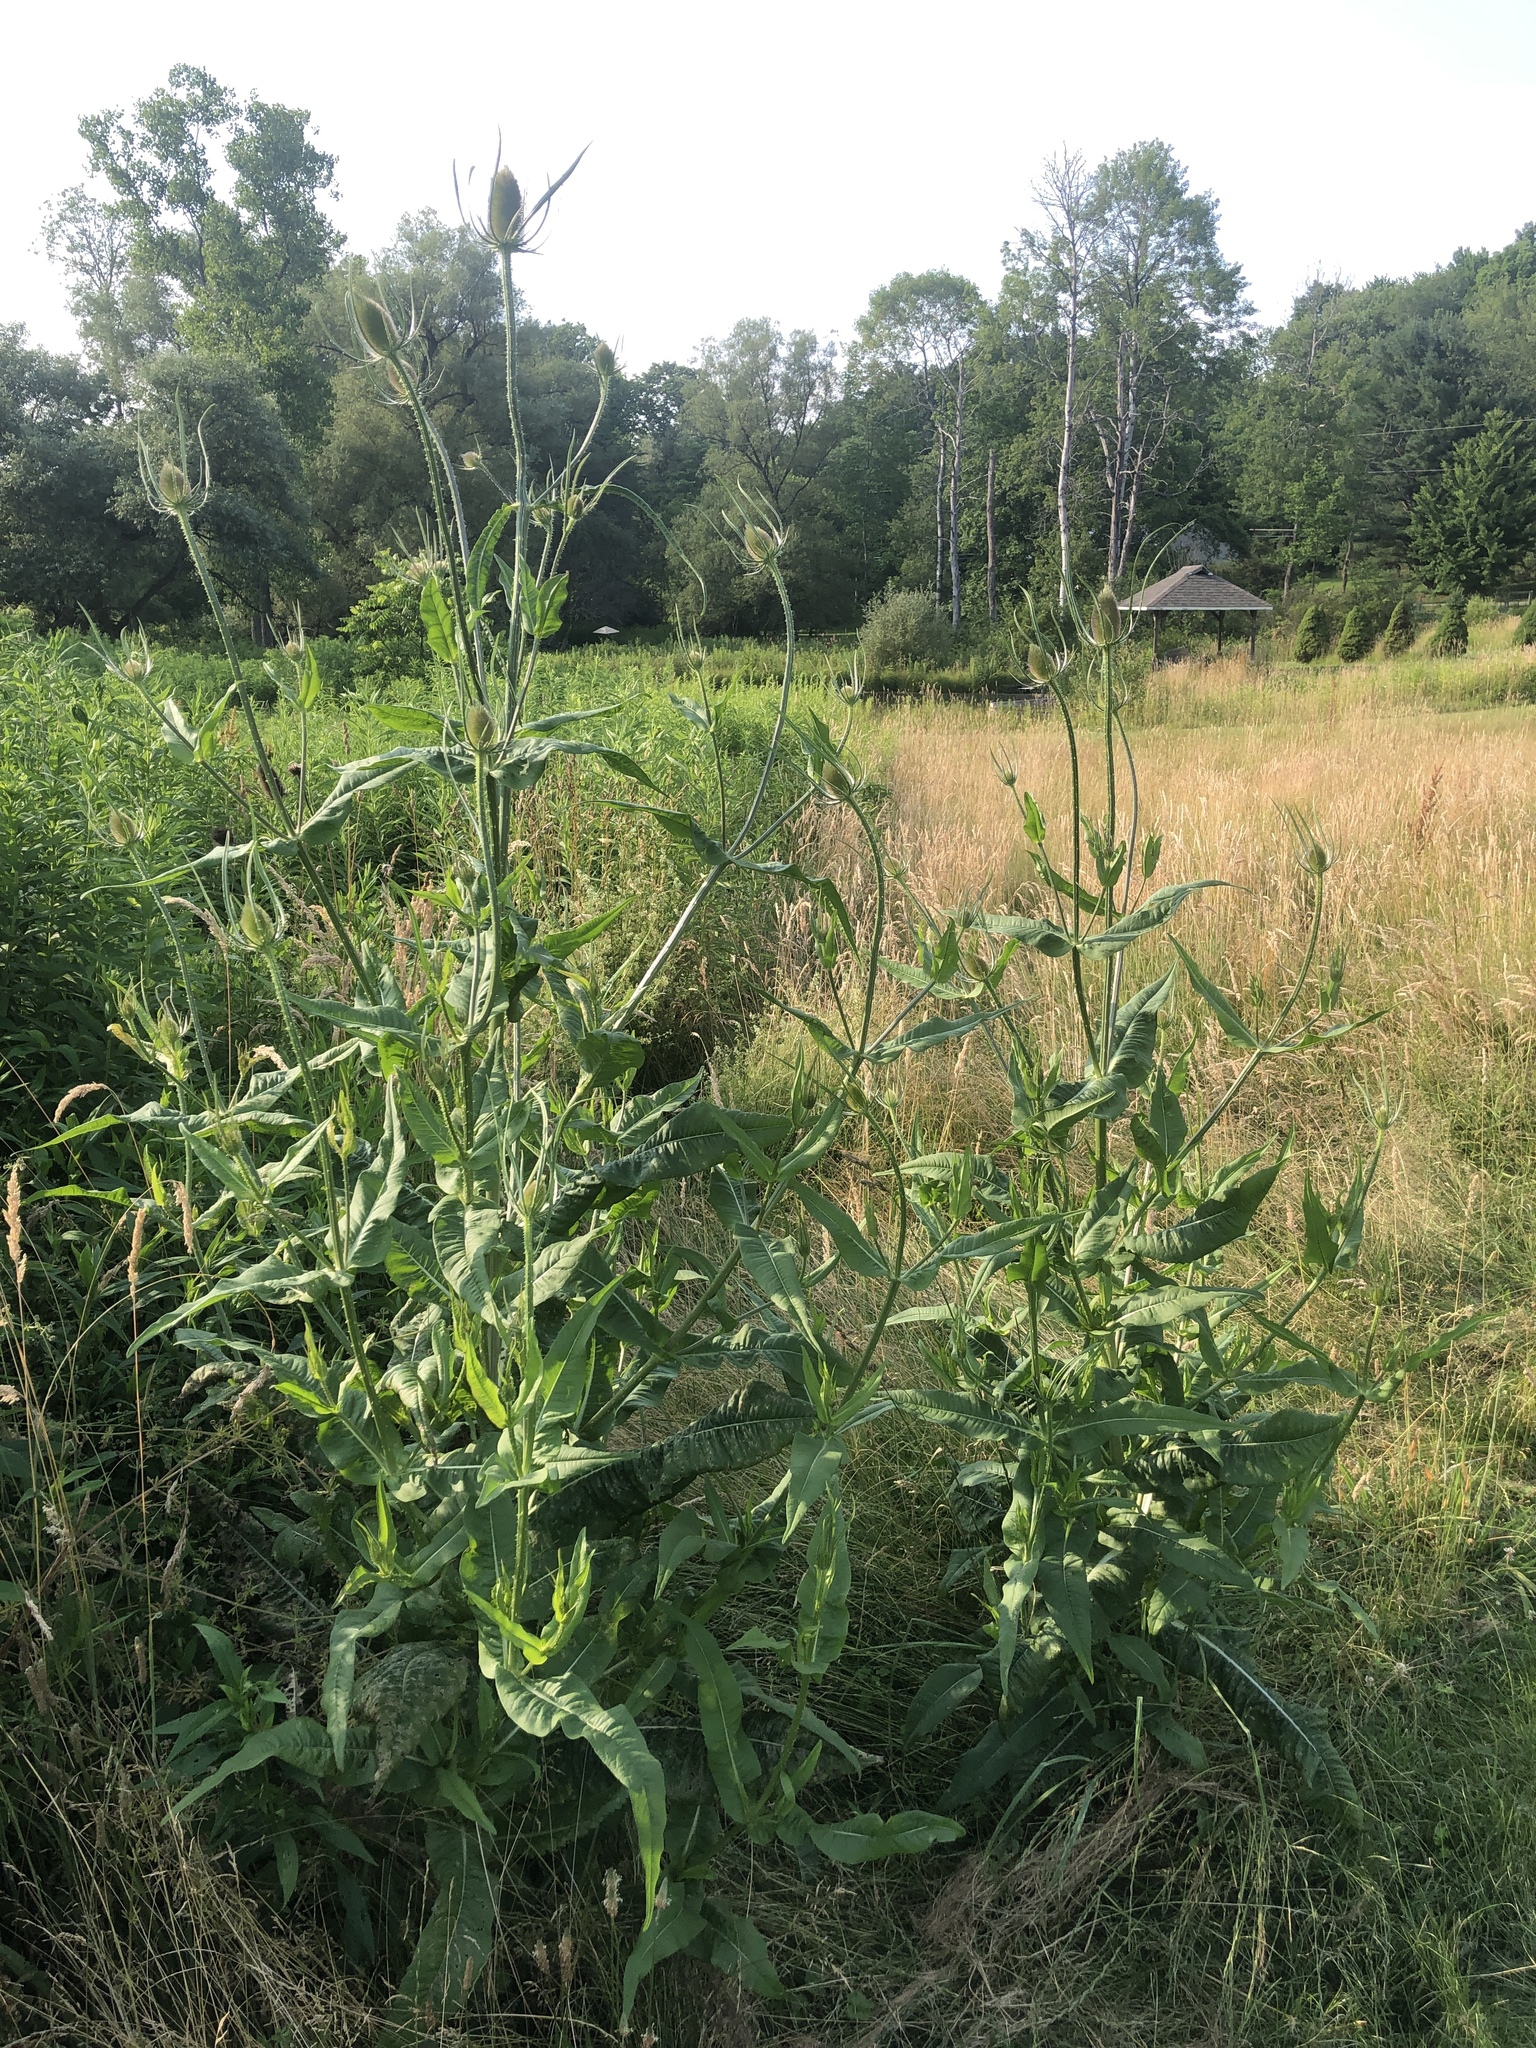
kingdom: Plantae
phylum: Tracheophyta
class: Magnoliopsida
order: Dipsacales
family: Caprifoliaceae
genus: Dipsacus
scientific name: Dipsacus fullonum
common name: Teasel
